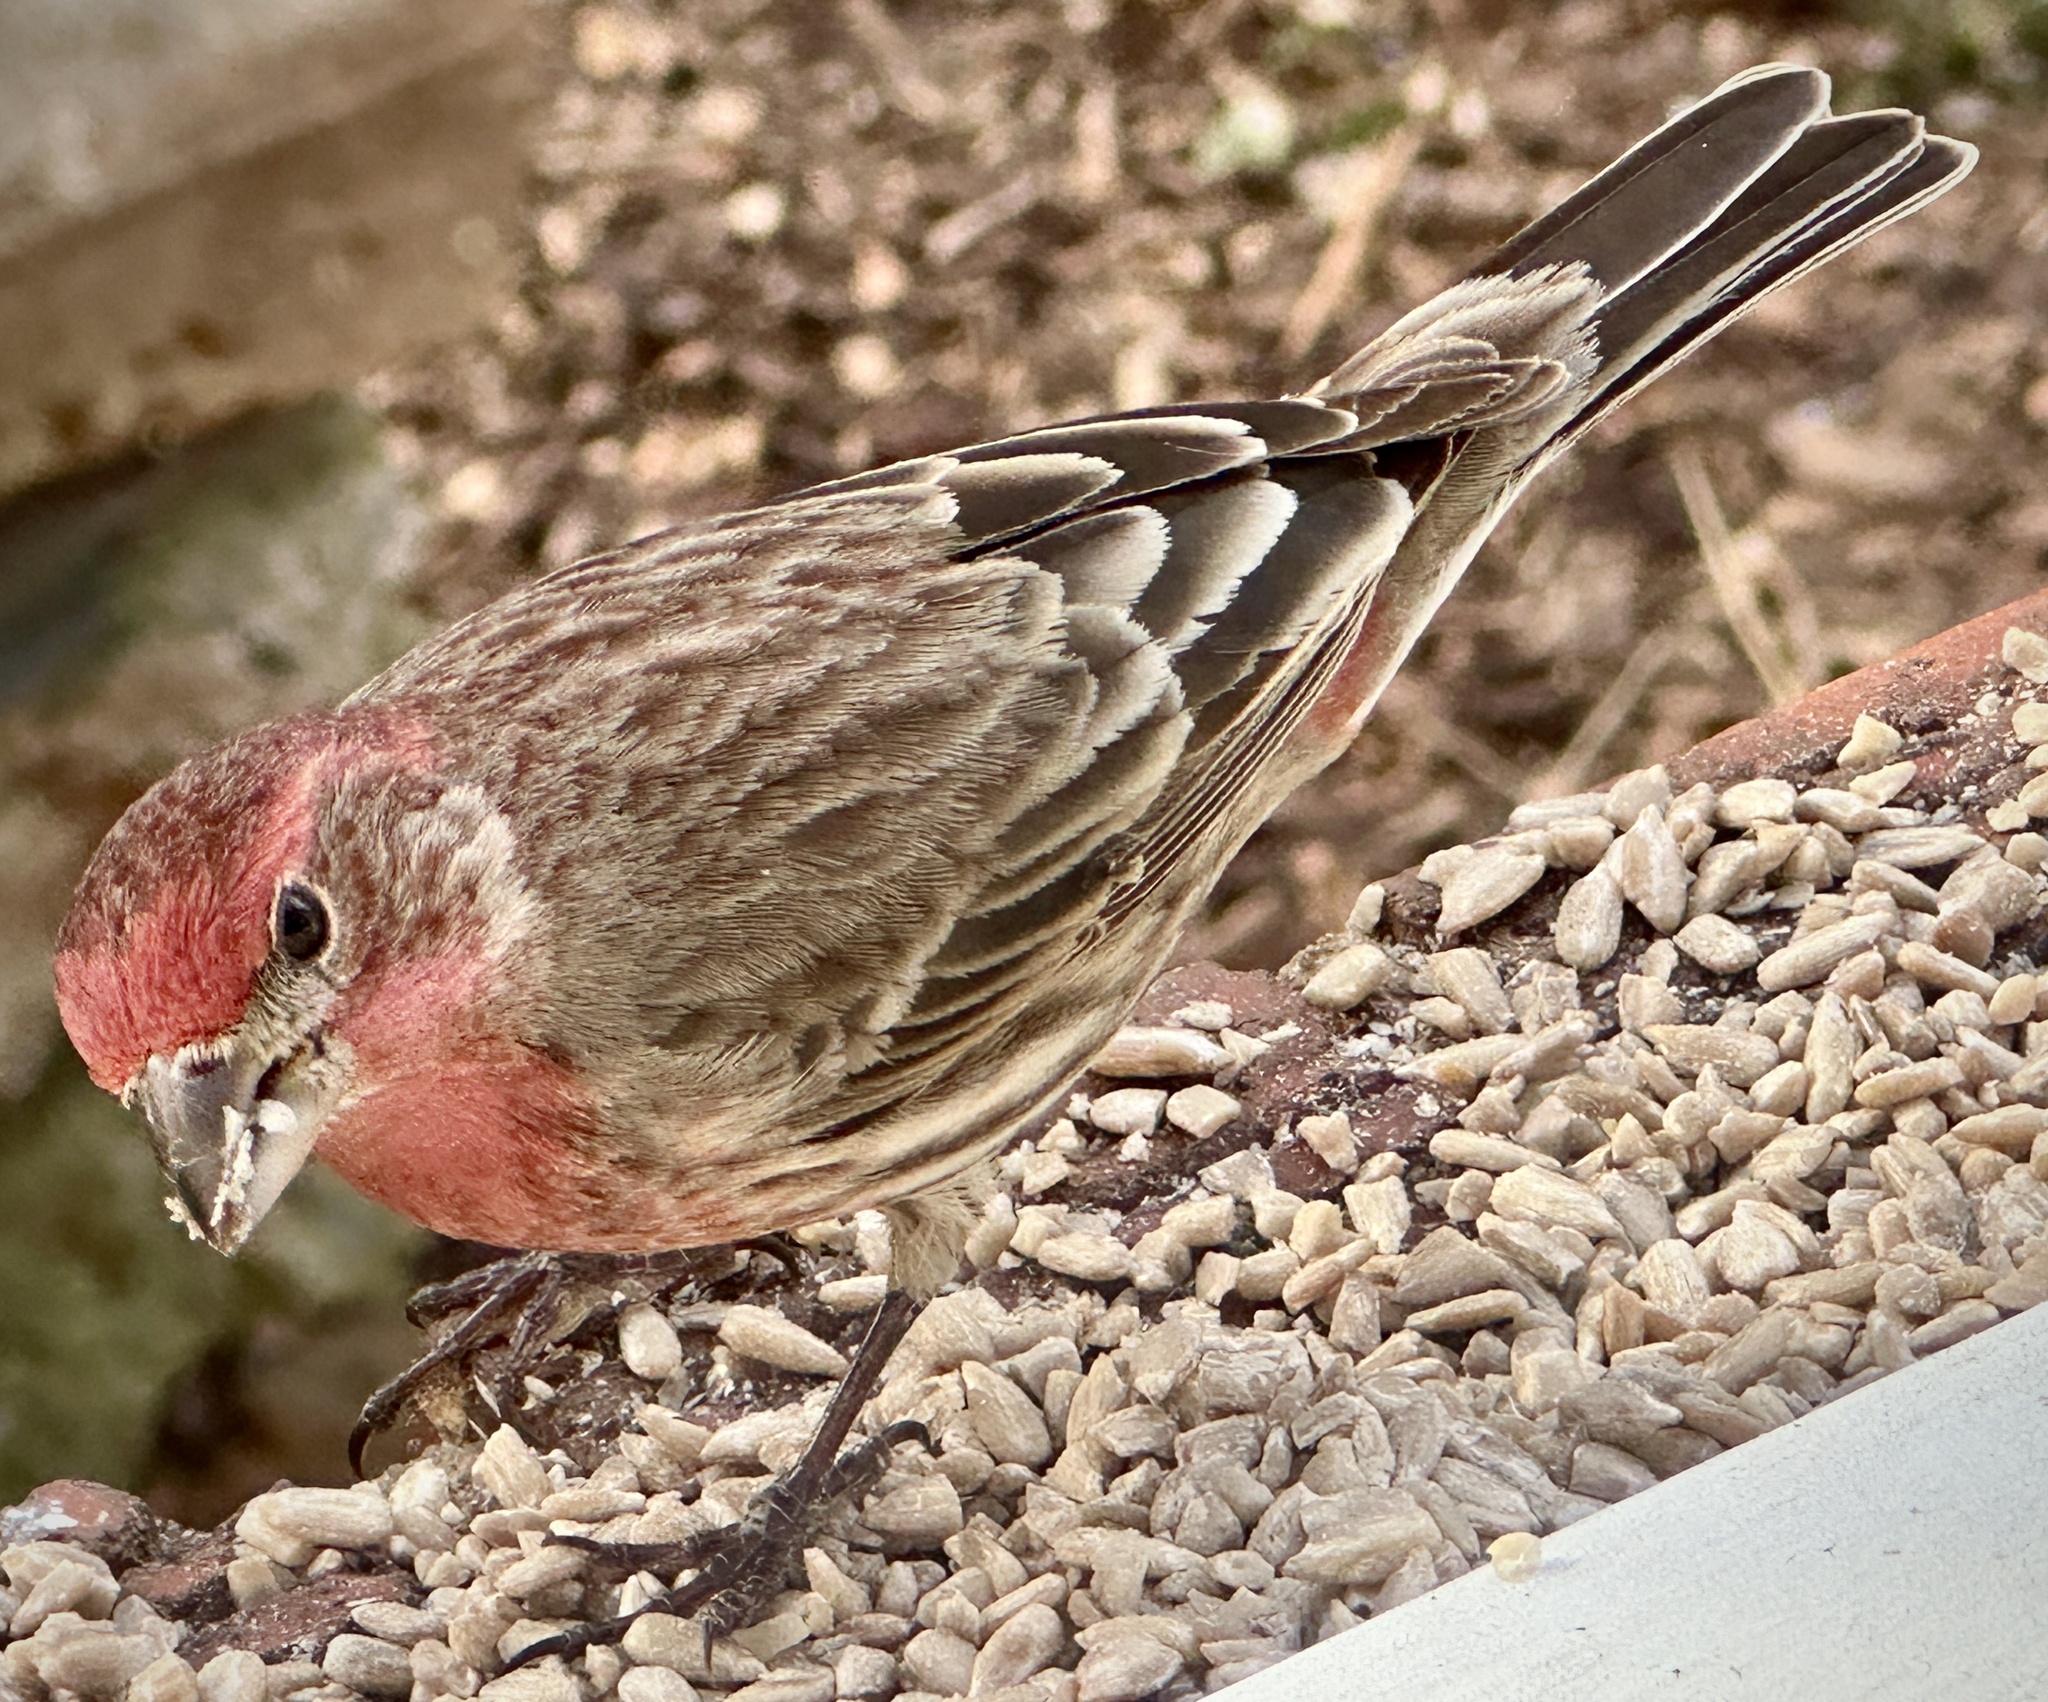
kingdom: Animalia
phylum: Chordata
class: Aves
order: Passeriformes
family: Fringillidae
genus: Haemorhous
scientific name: Haemorhous mexicanus
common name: House finch
